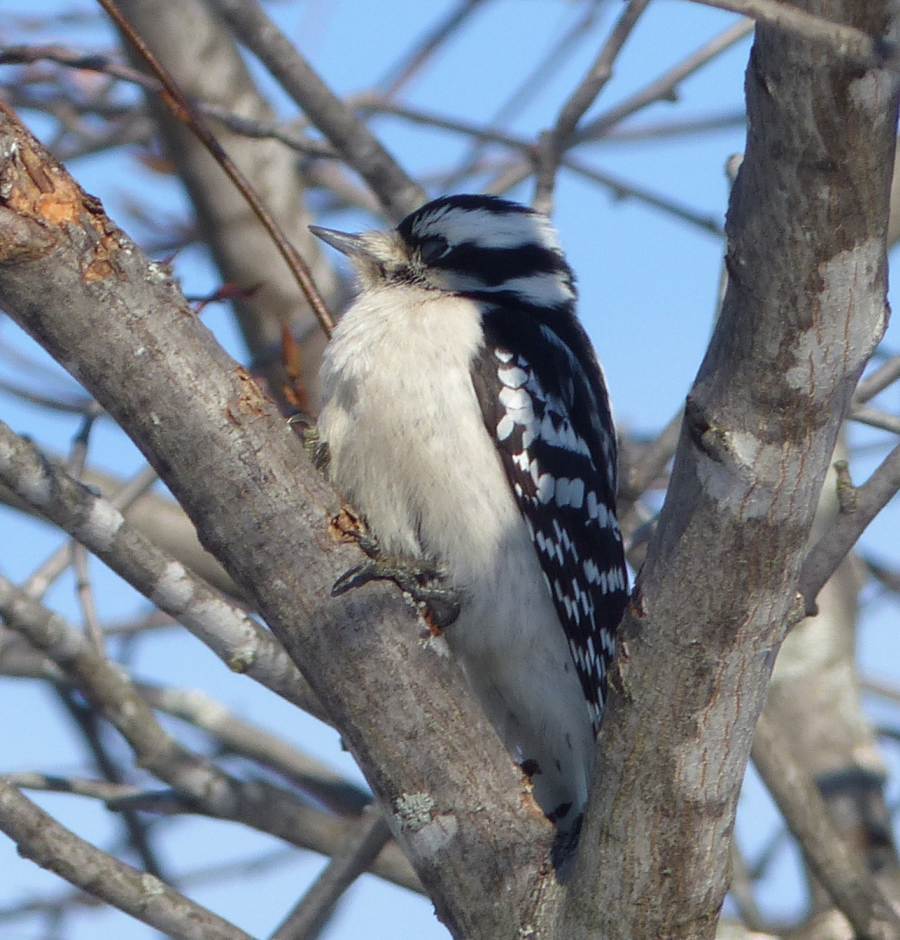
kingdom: Animalia
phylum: Chordata
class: Aves
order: Piciformes
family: Picidae
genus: Dryobates
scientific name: Dryobates pubescens
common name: Downy woodpecker
